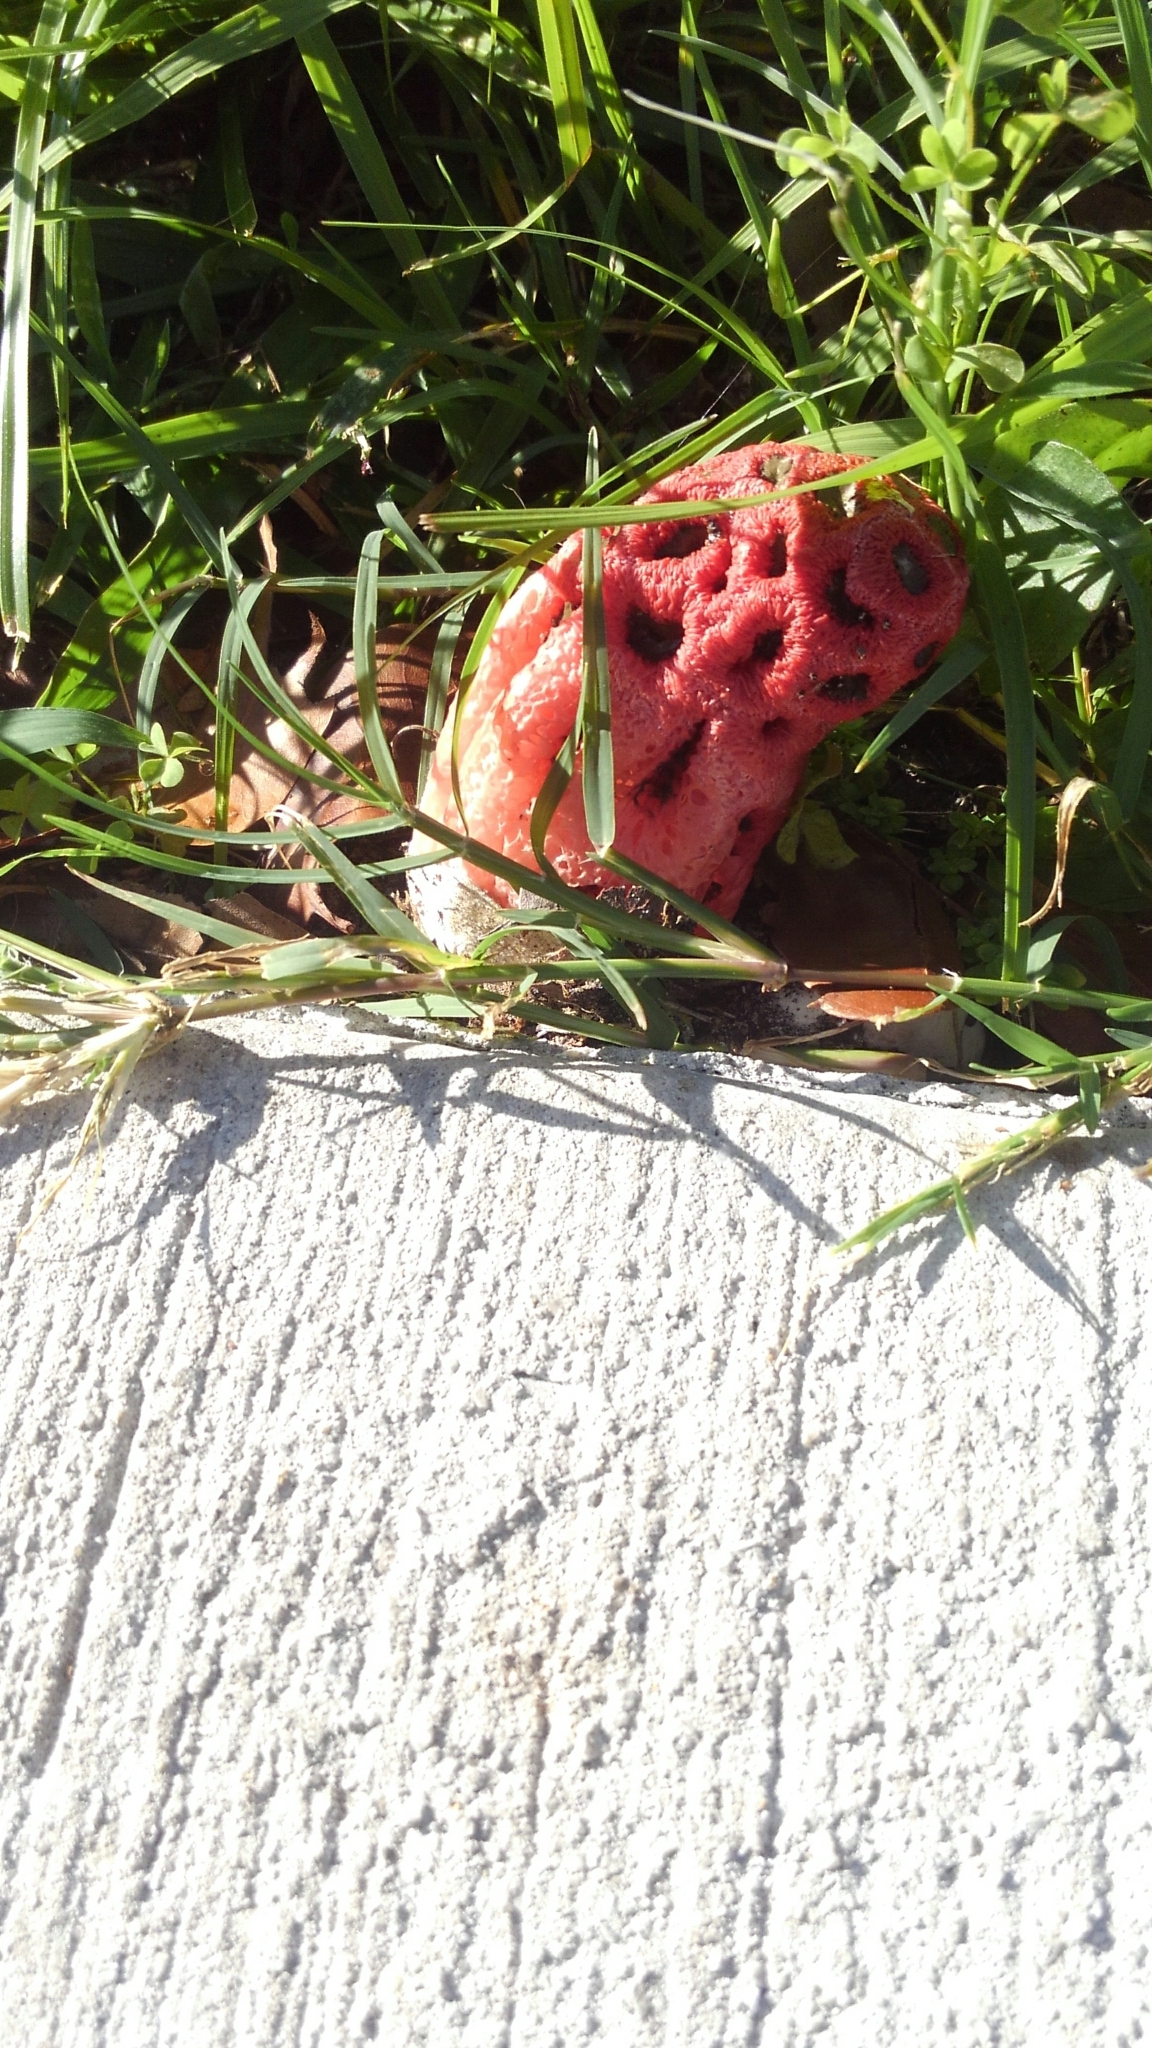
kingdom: Fungi
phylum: Basidiomycota
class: Agaricomycetes
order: Phallales
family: Phallaceae
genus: Clathrus
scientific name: Clathrus crispatus
